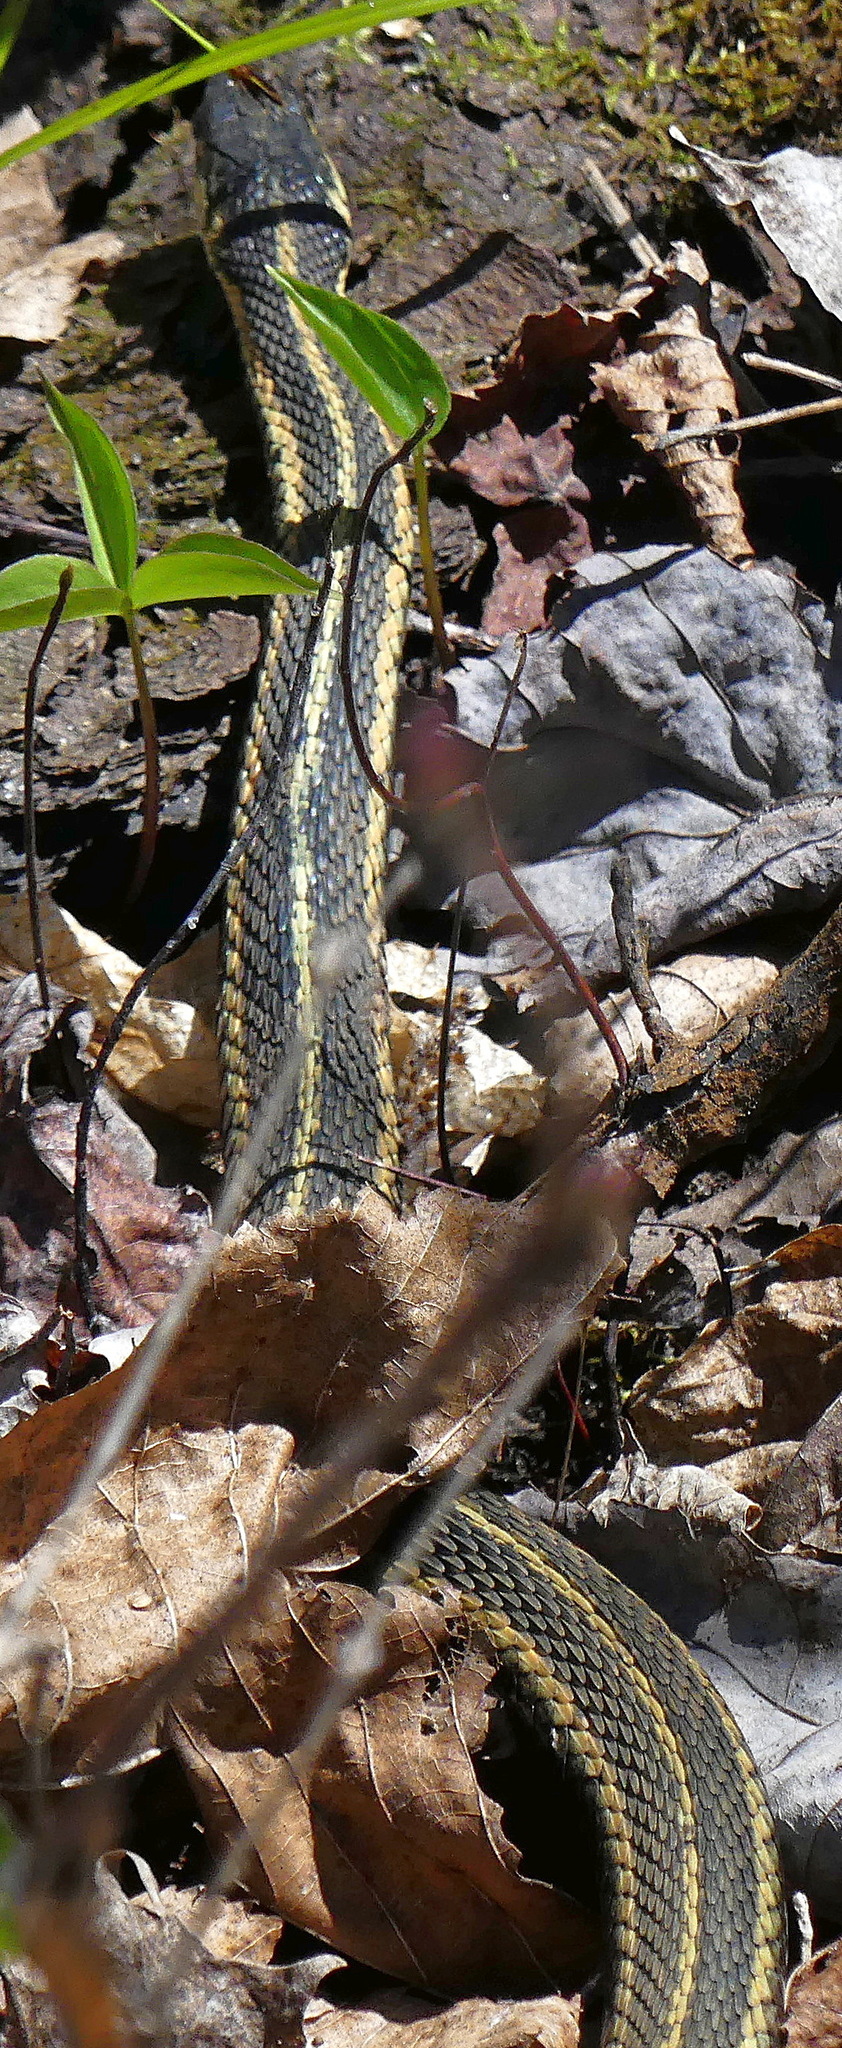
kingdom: Animalia
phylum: Chordata
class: Squamata
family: Colubridae
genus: Thamnophis
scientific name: Thamnophis sirtalis
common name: Common garter snake
